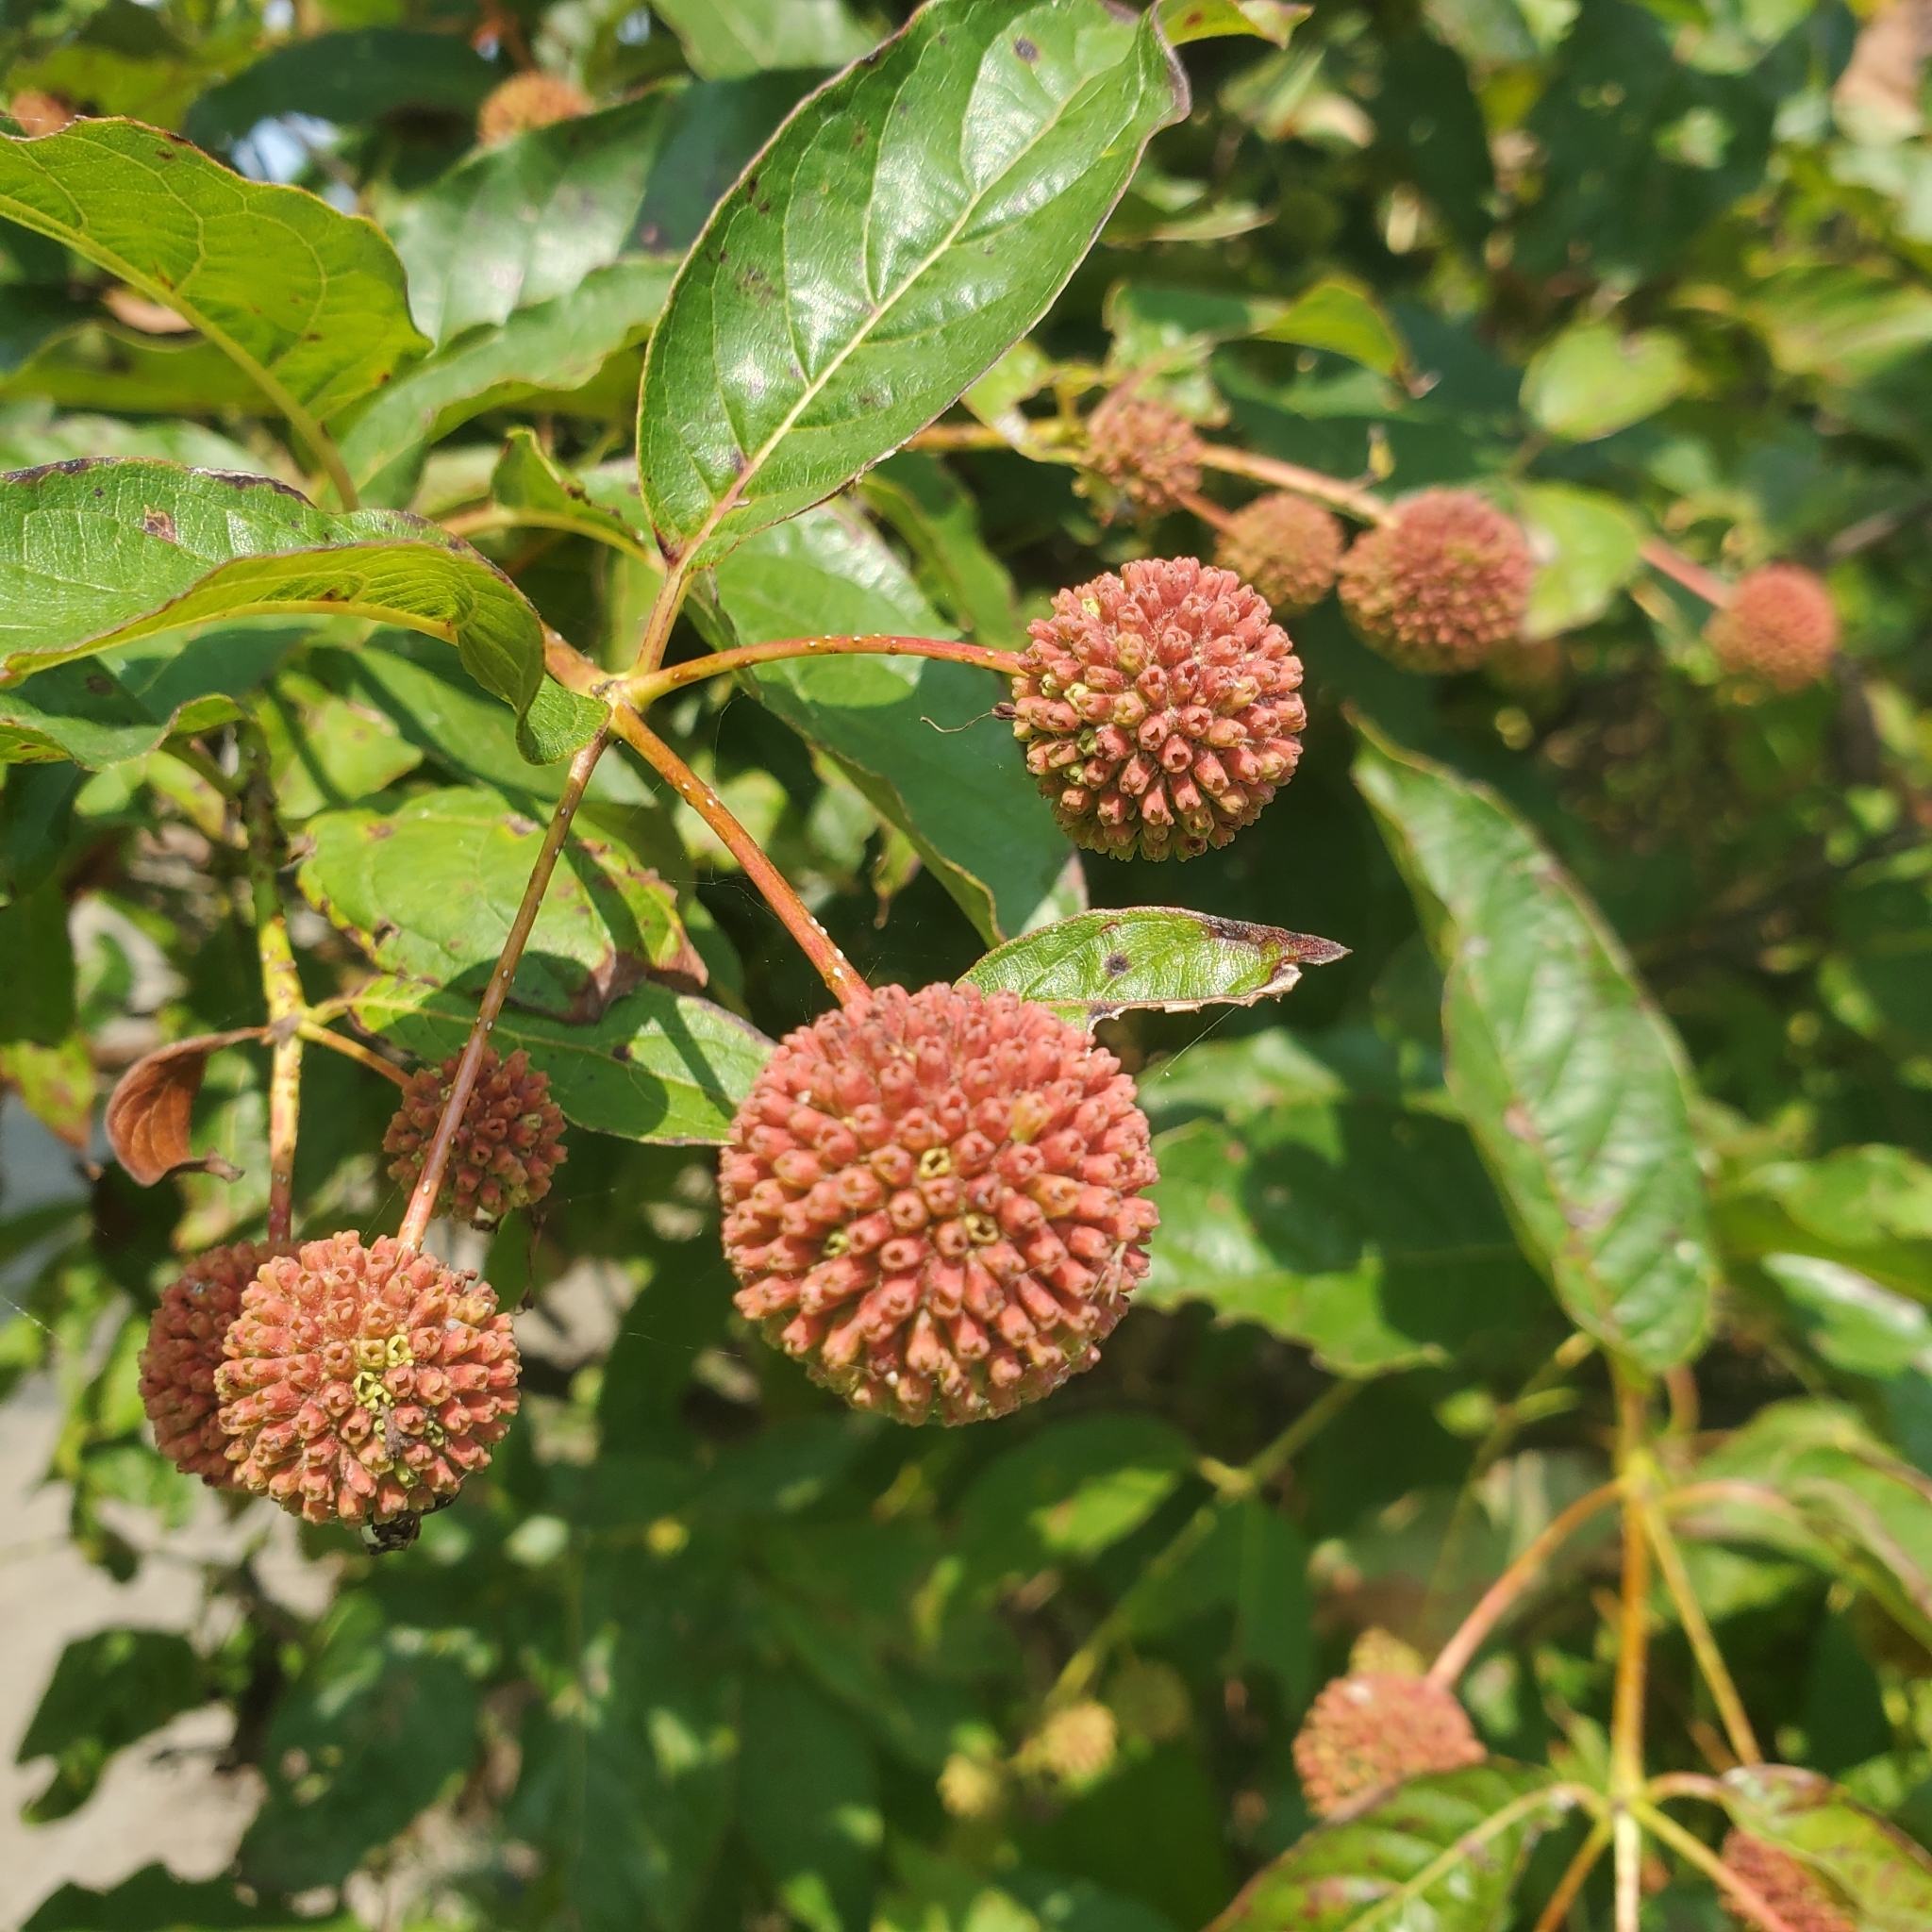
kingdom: Plantae
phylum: Tracheophyta
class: Magnoliopsida
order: Gentianales
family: Rubiaceae
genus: Cephalanthus
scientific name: Cephalanthus occidentalis
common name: Button-willow
